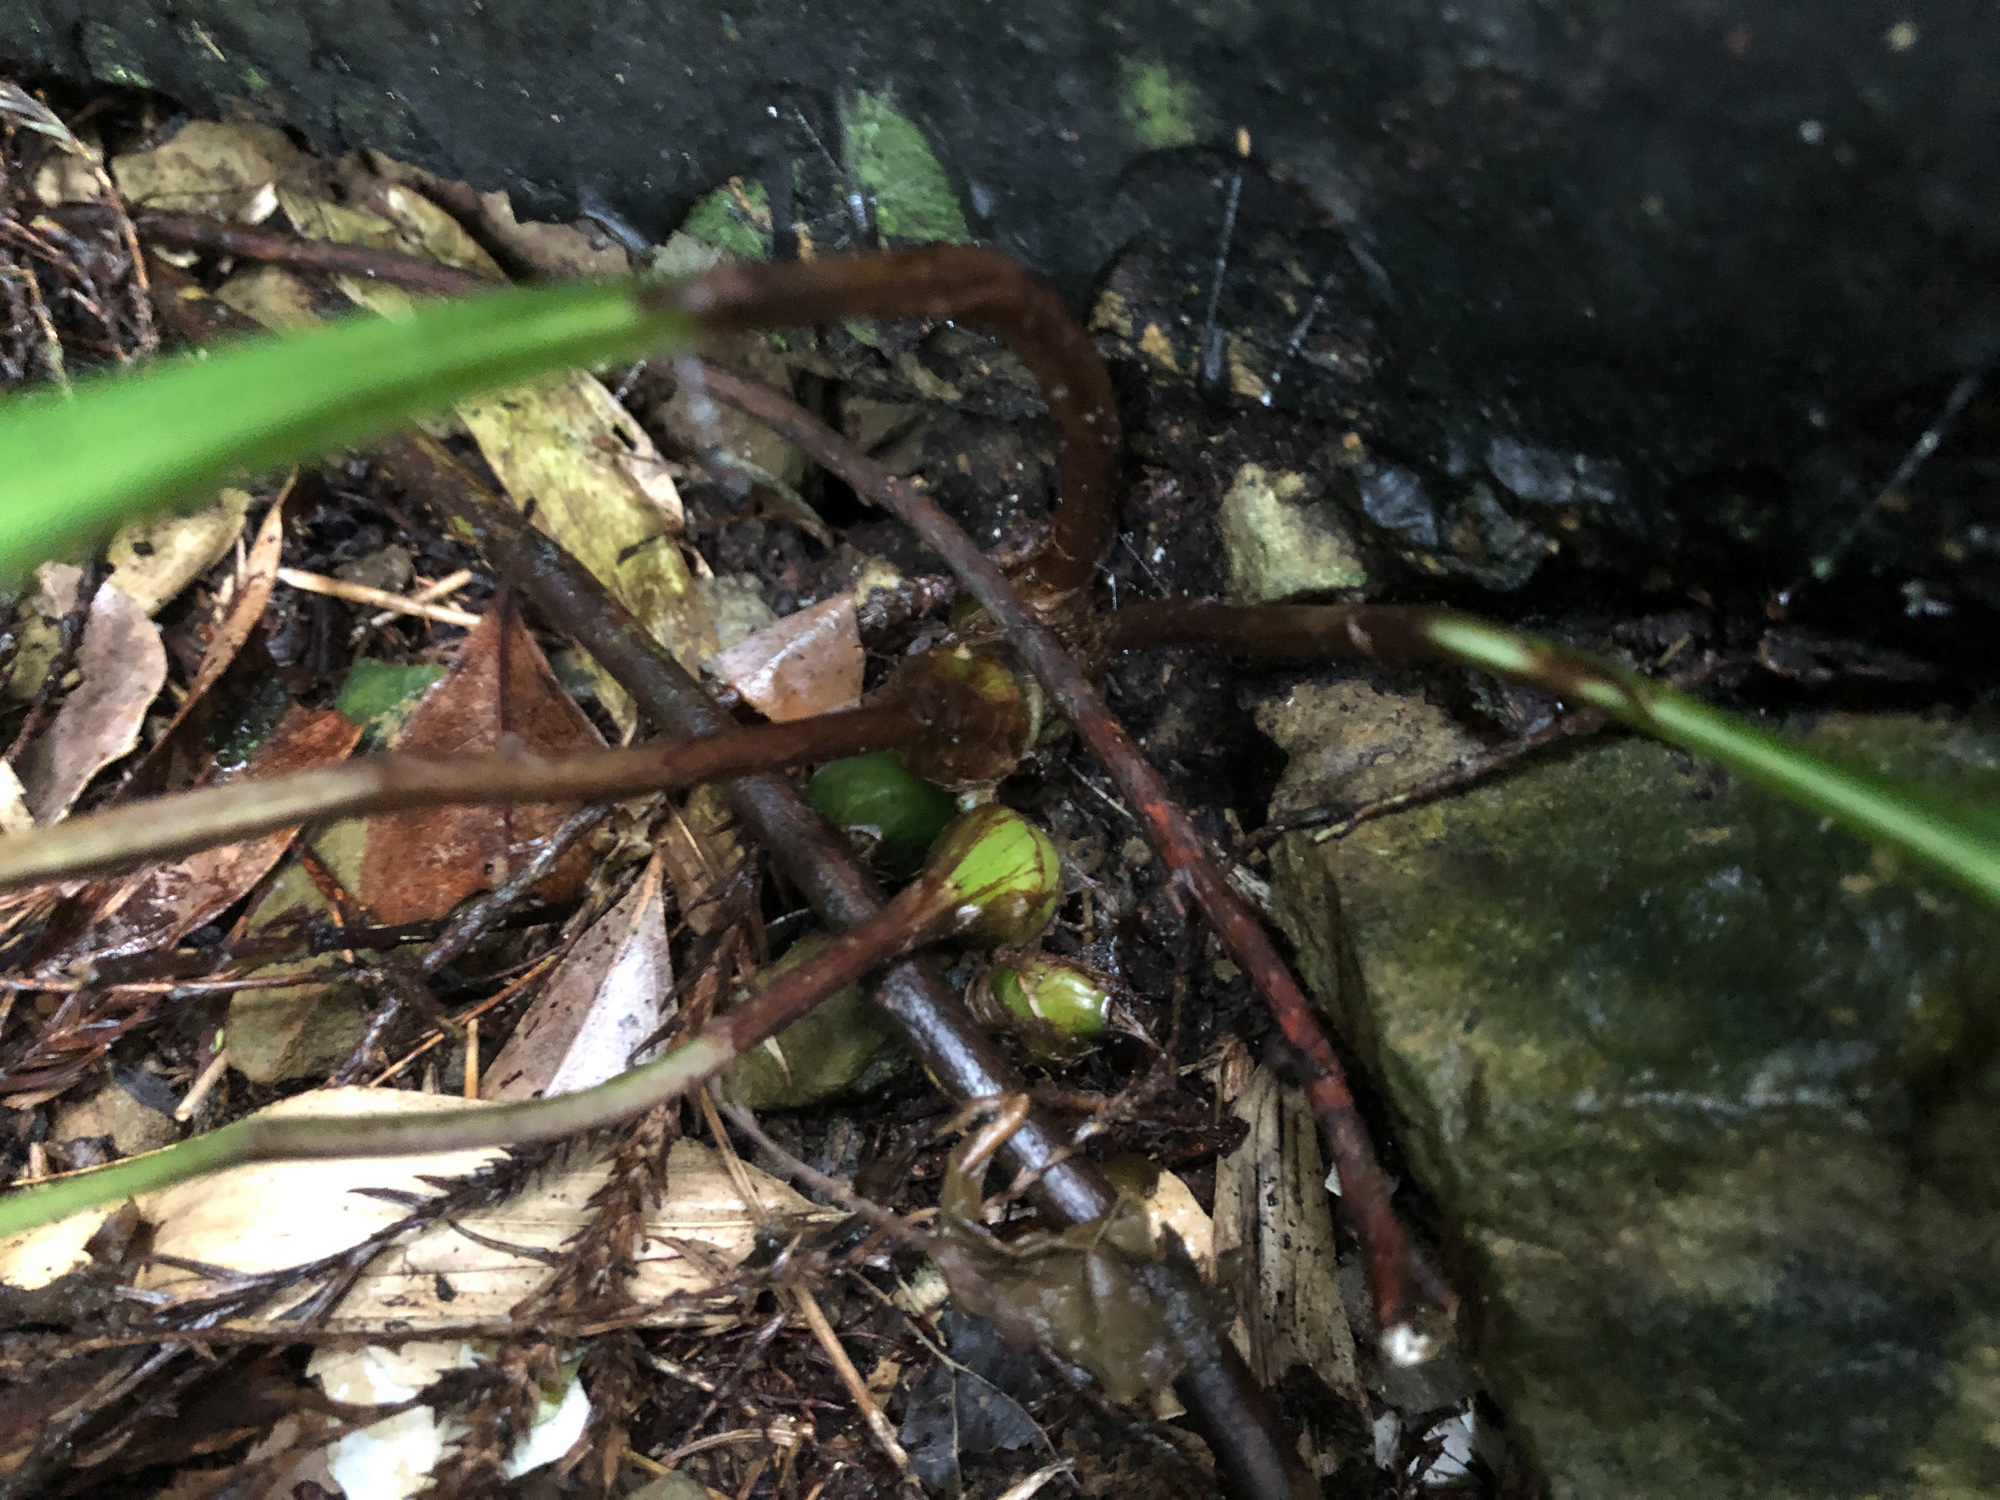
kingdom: Plantae
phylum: Tracheophyta
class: Liliopsida
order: Asparagales
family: Orchidaceae
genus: Cremastra
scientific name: Cremastra appendiculata
